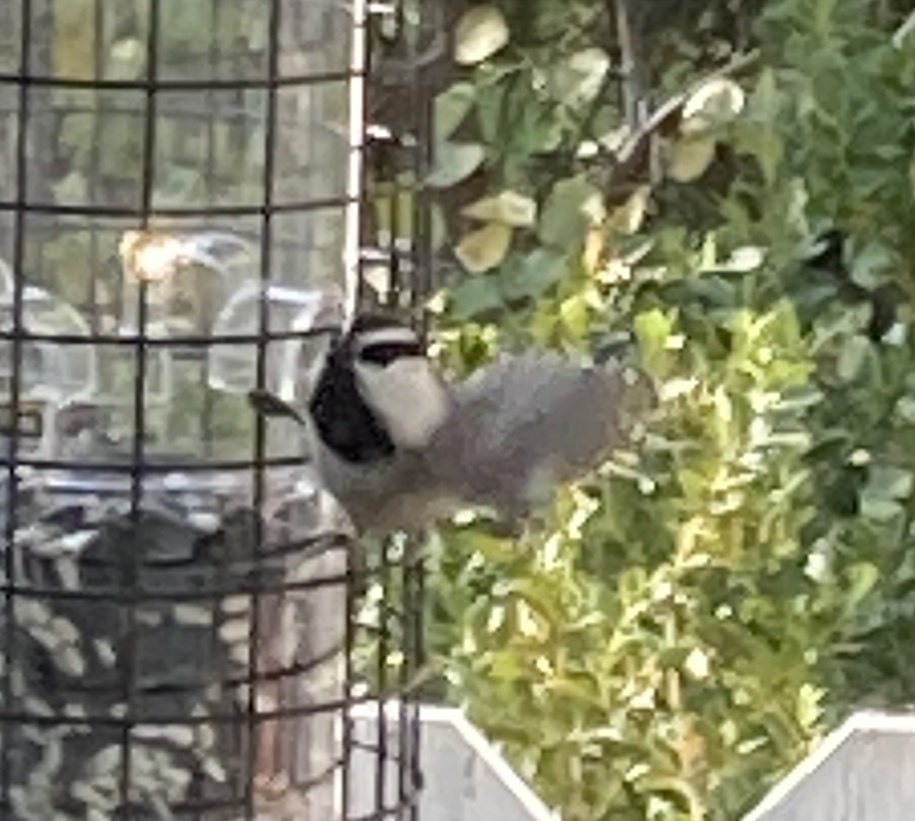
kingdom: Animalia
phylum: Chordata
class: Aves
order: Passeriformes
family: Paridae
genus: Poecile
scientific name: Poecile gambeli
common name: Mountain chickadee
